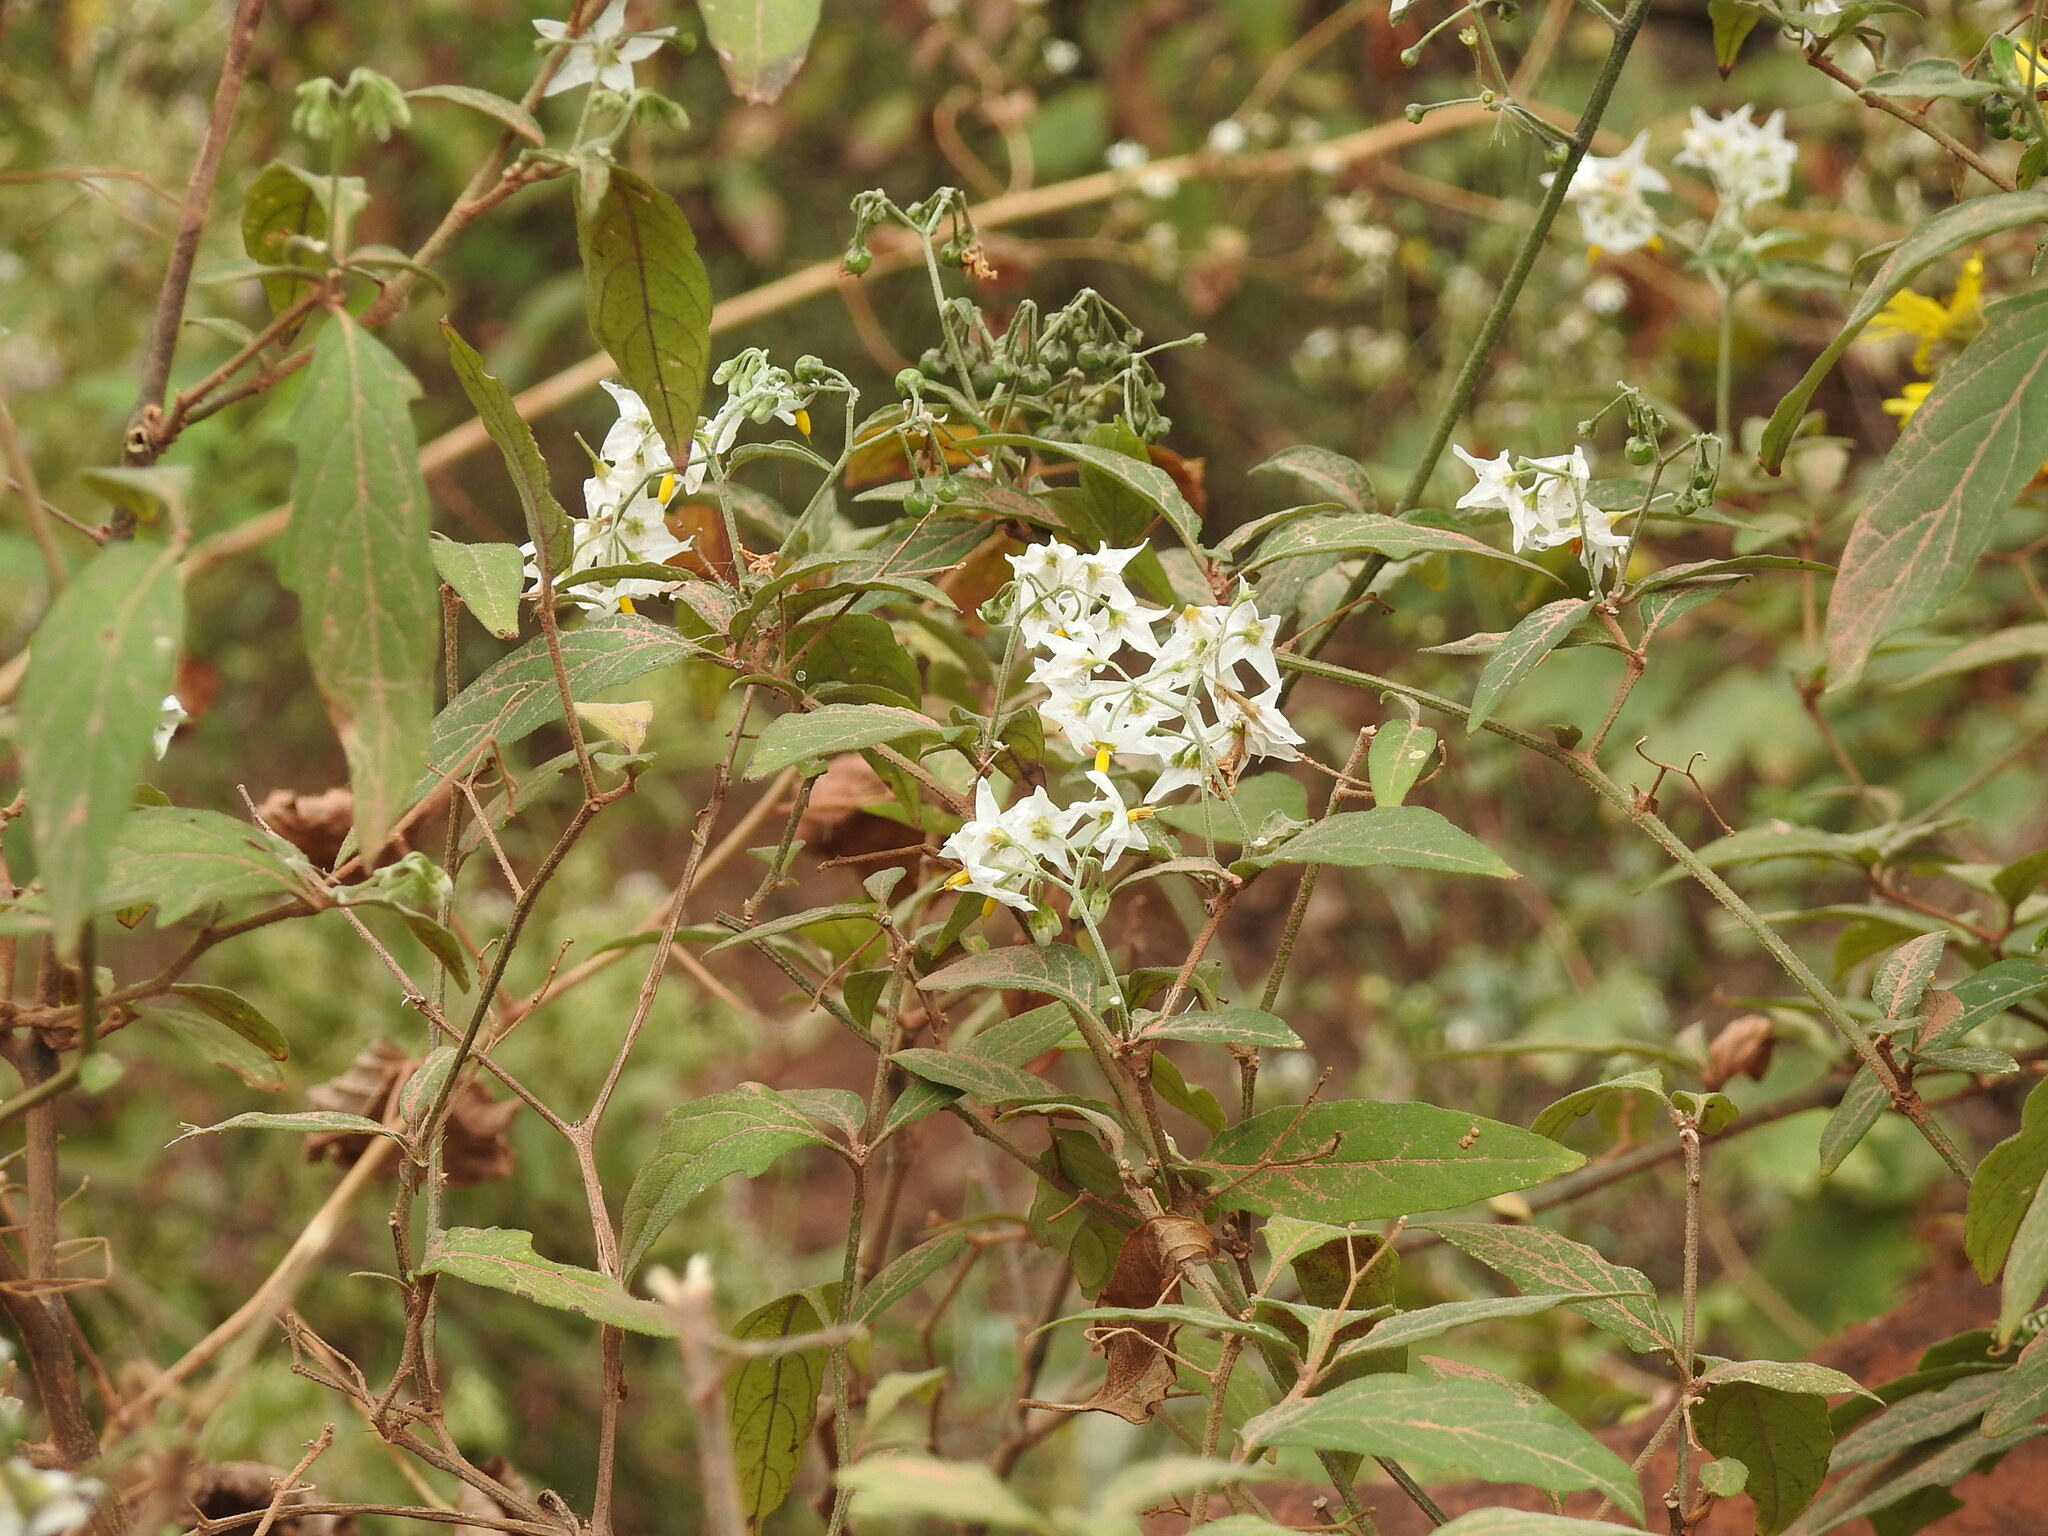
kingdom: Plantae
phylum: Tracheophyta
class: Magnoliopsida
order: Solanales
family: Solanaceae
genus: Solanum
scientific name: Solanum aloysiifolium
